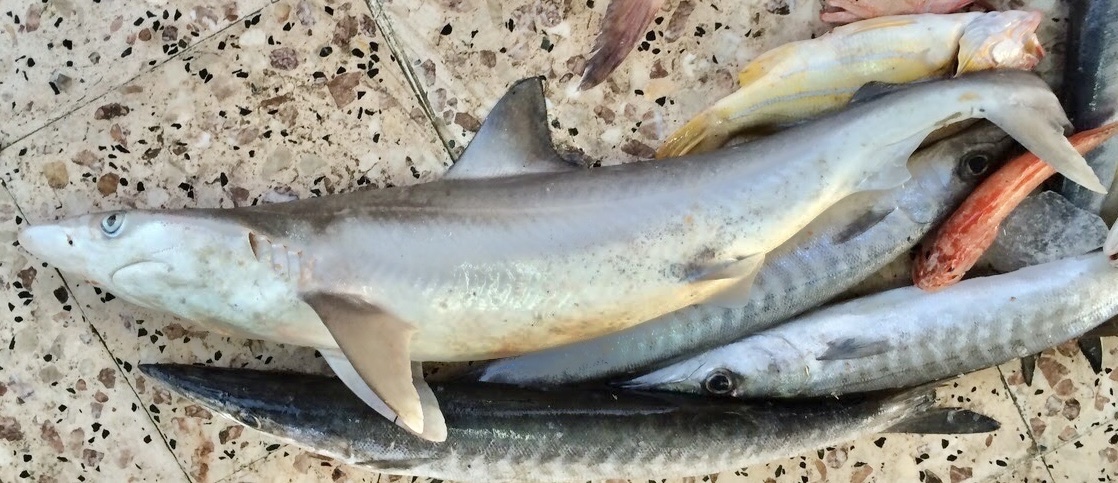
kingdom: Animalia
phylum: Chordata
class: Elasmobranchii
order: Carcharhiniformes
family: Carcharhinidae
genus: Rhizoprionodon
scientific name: Rhizoprionodon acutus
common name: Milk shark
